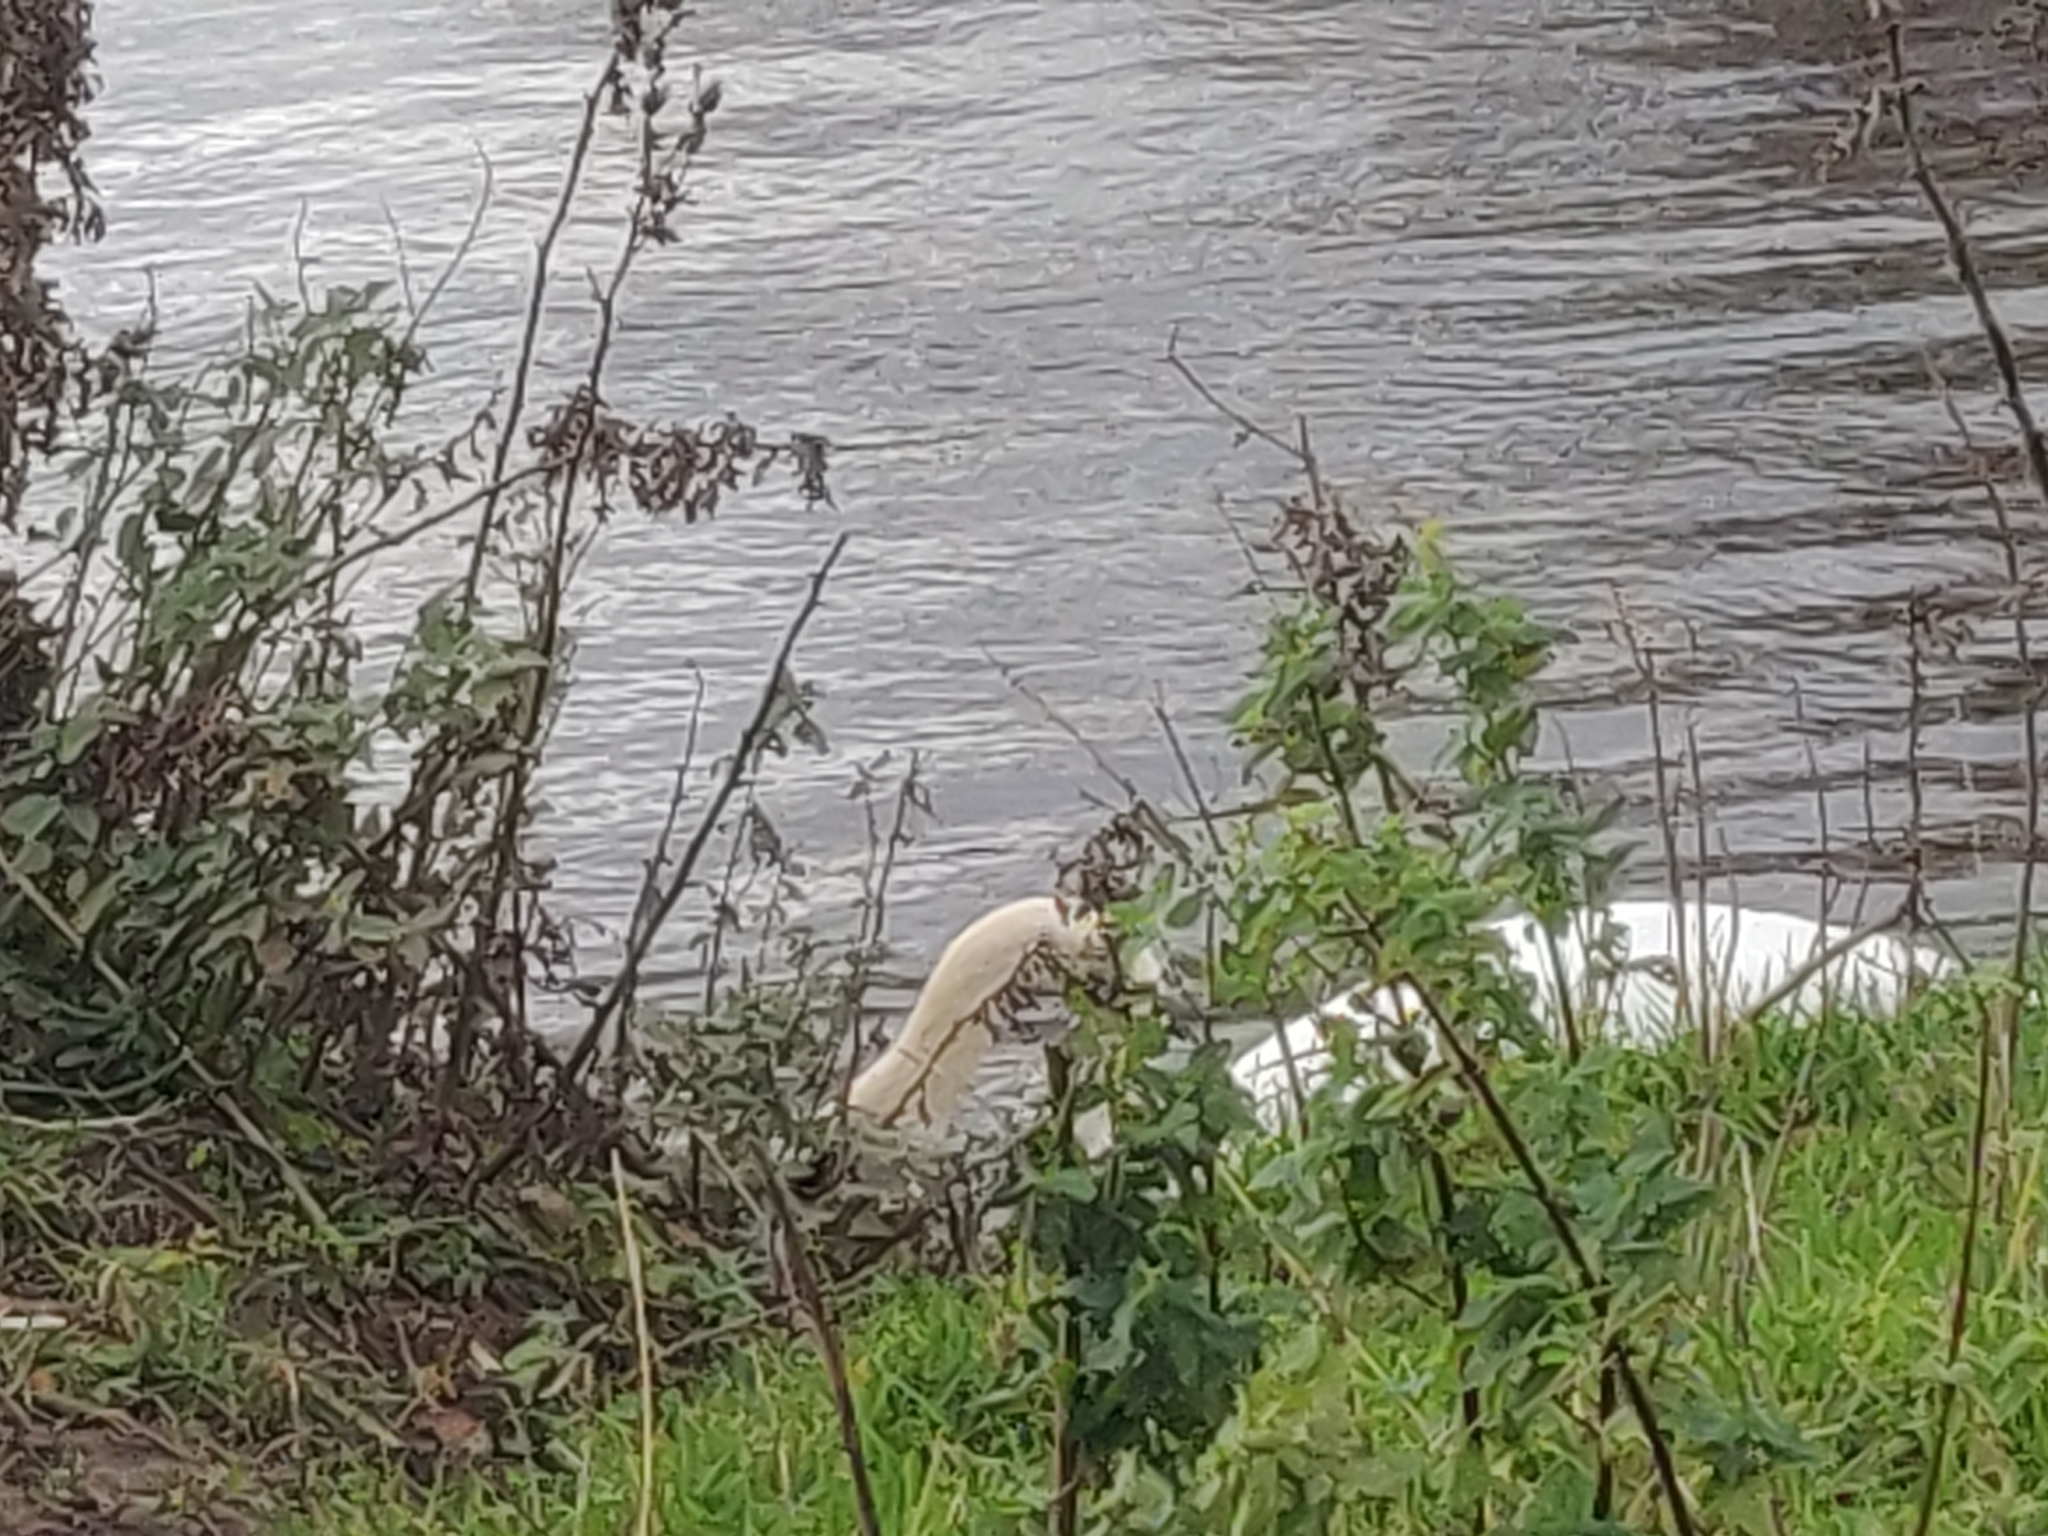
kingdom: Animalia
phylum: Chordata
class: Aves
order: Anseriformes
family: Anatidae
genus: Cygnus
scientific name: Cygnus olor
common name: Mute swan
